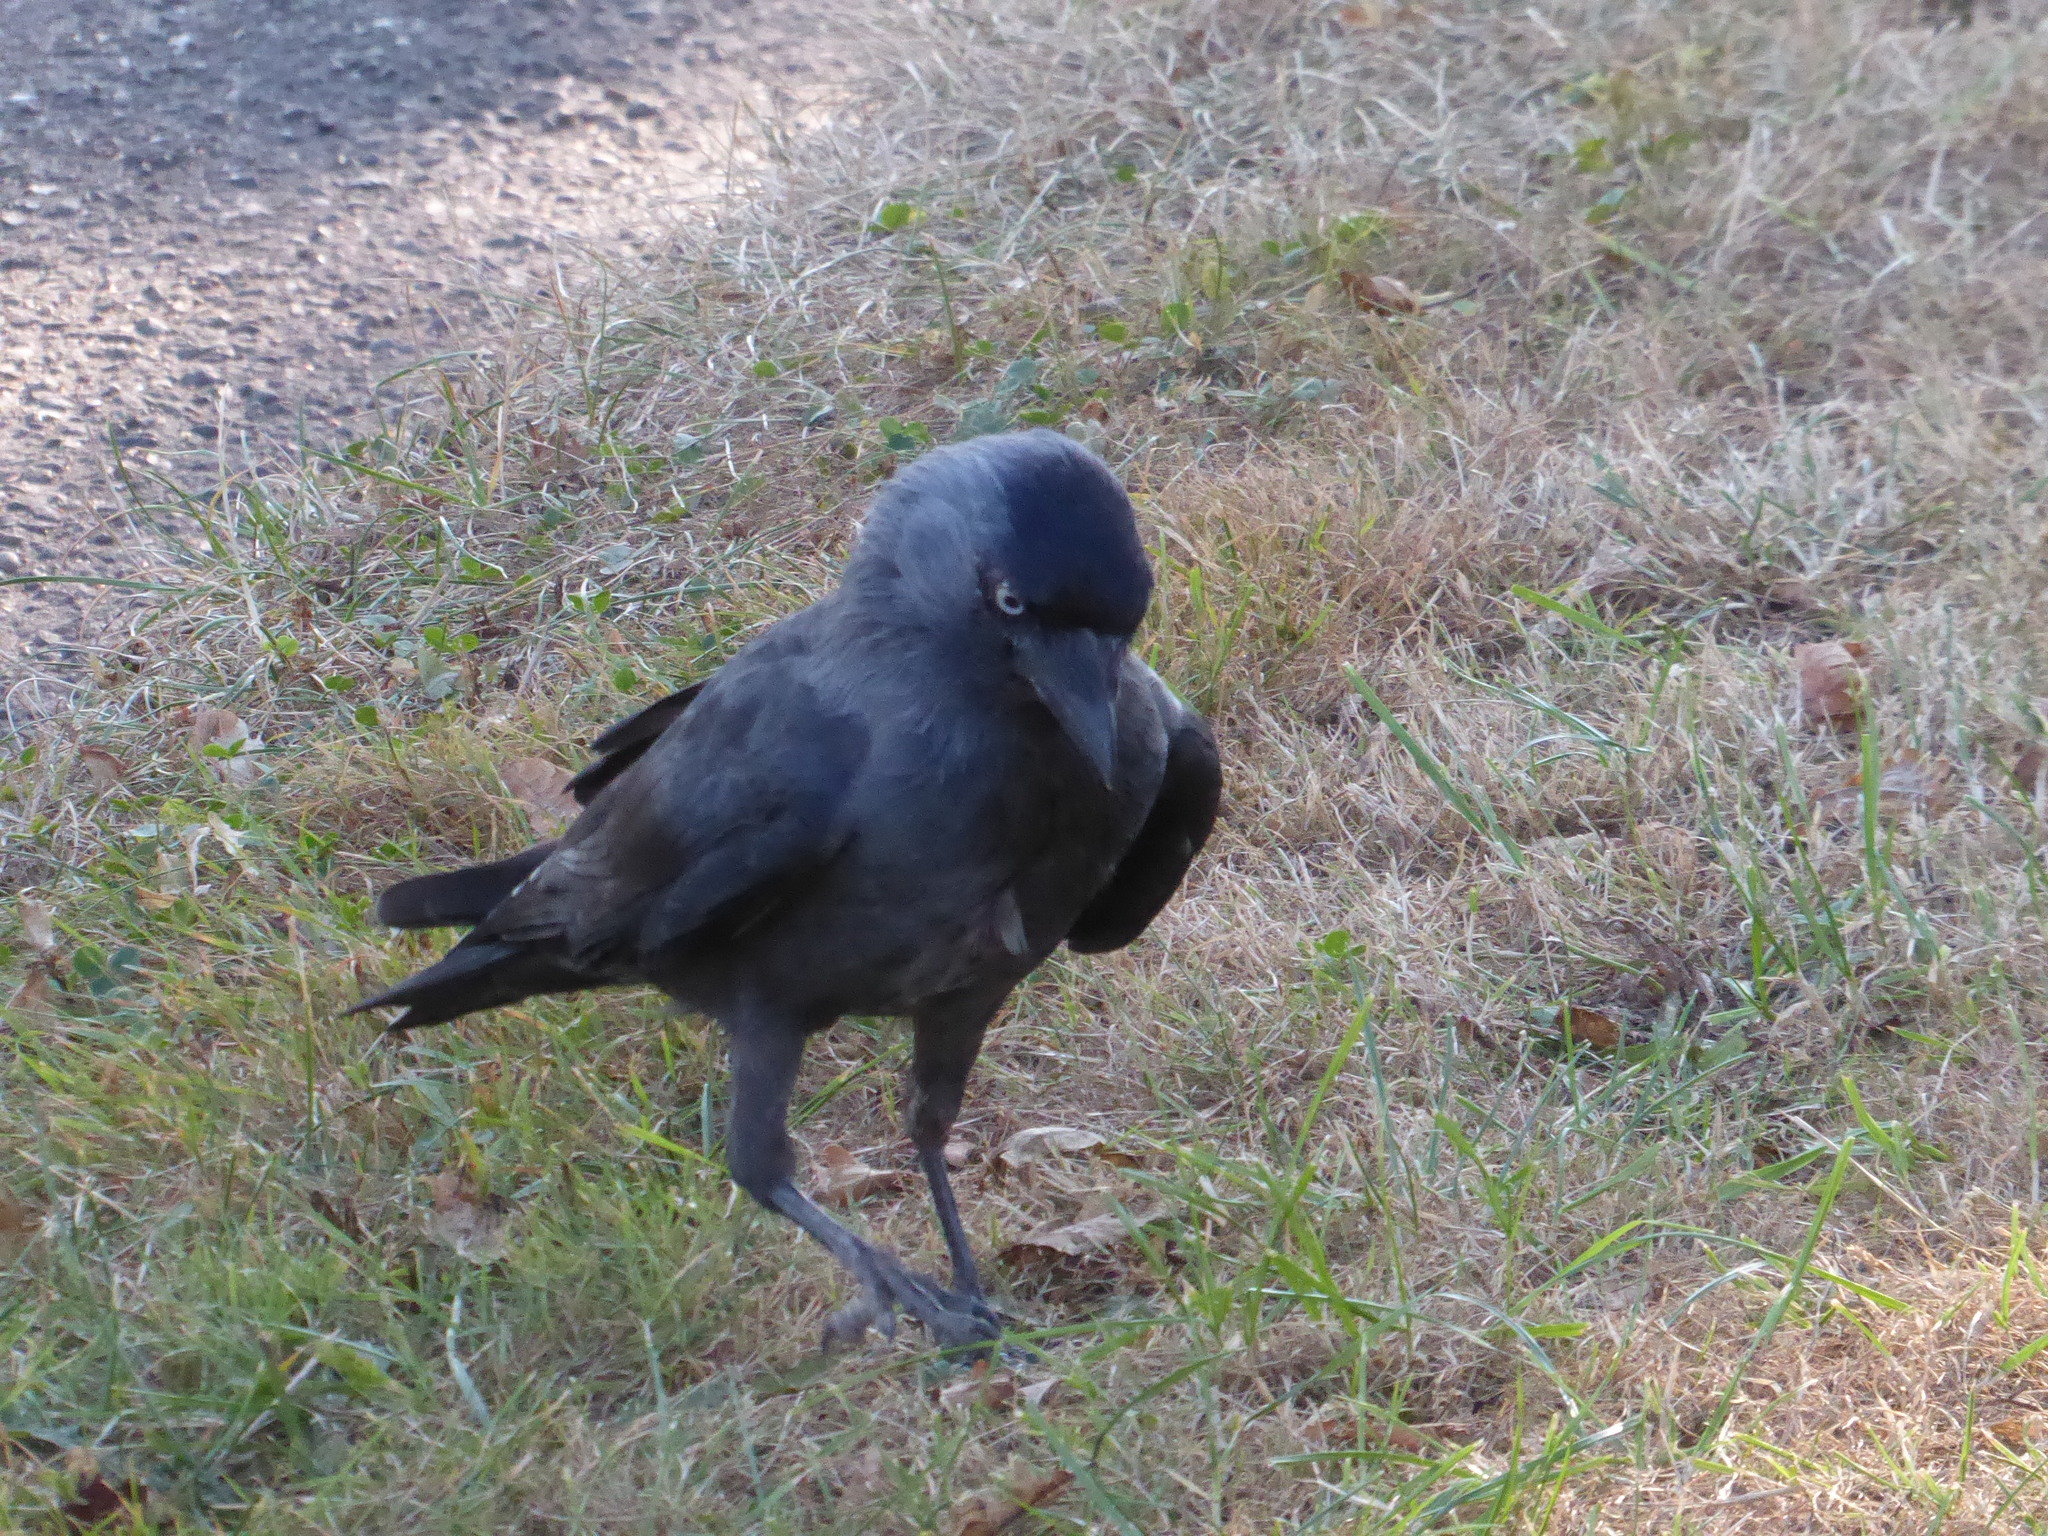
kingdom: Animalia
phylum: Chordata
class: Aves
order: Passeriformes
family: Corvidae
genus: Coloeus
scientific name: Coloeus monedula
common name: Western jackdaw
